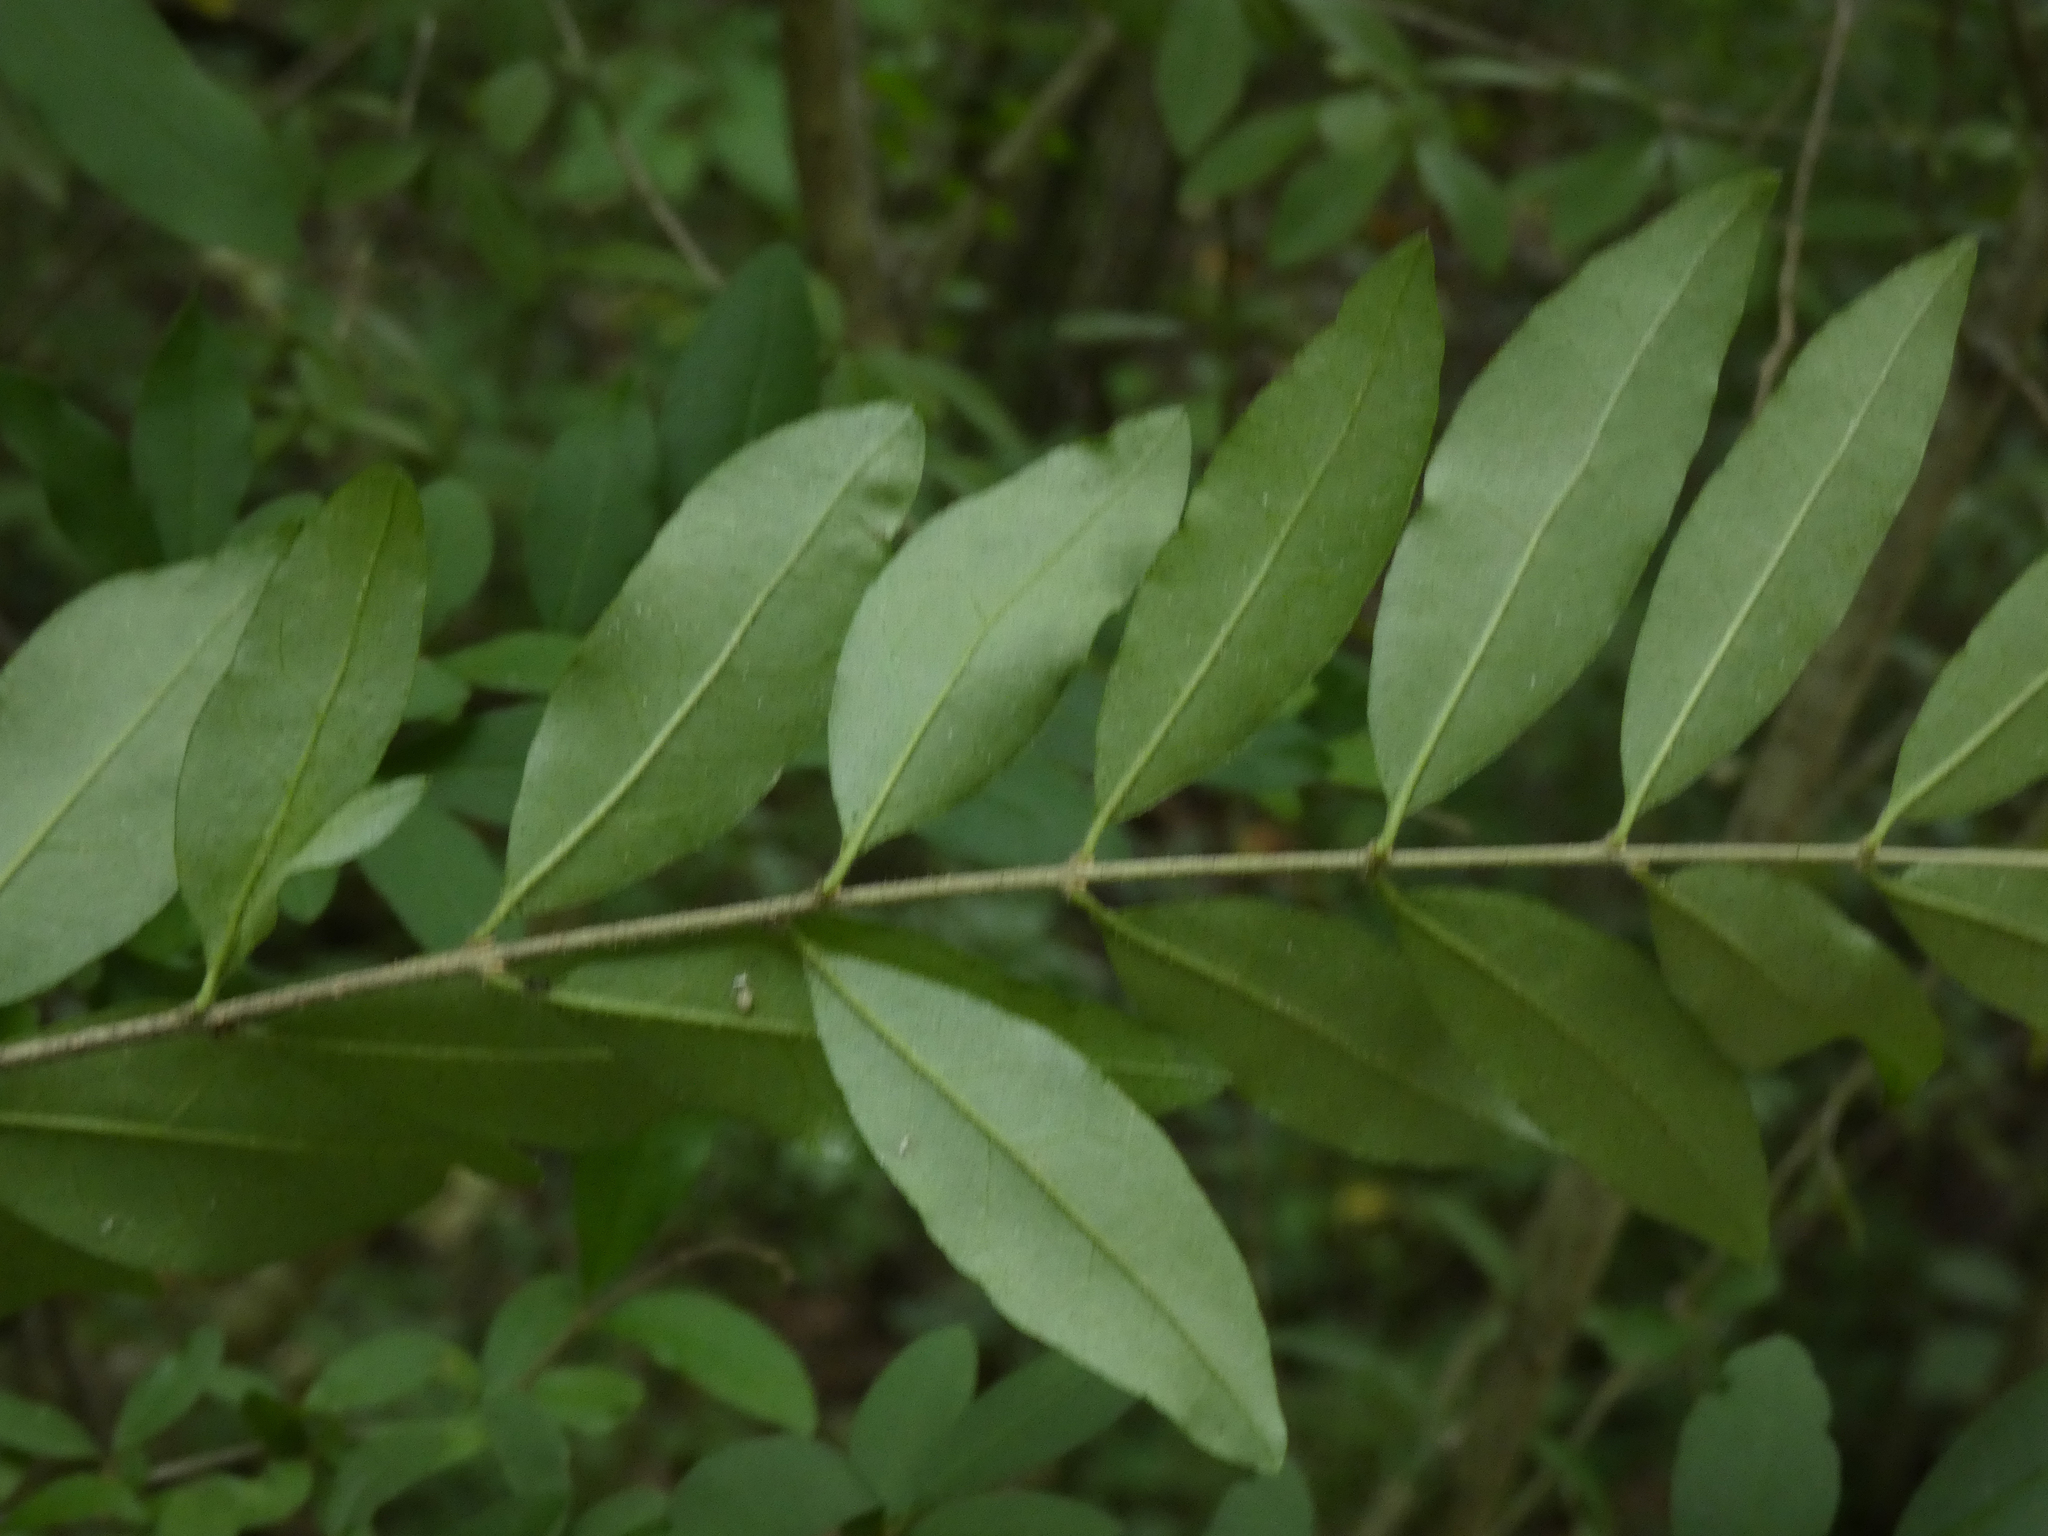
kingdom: Plantae
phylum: Tracheophyta
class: Magnoliopsida
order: Lamiales
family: Oleaceae
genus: Ligustrum
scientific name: Ligustrum obtusifolium
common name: Border privet
